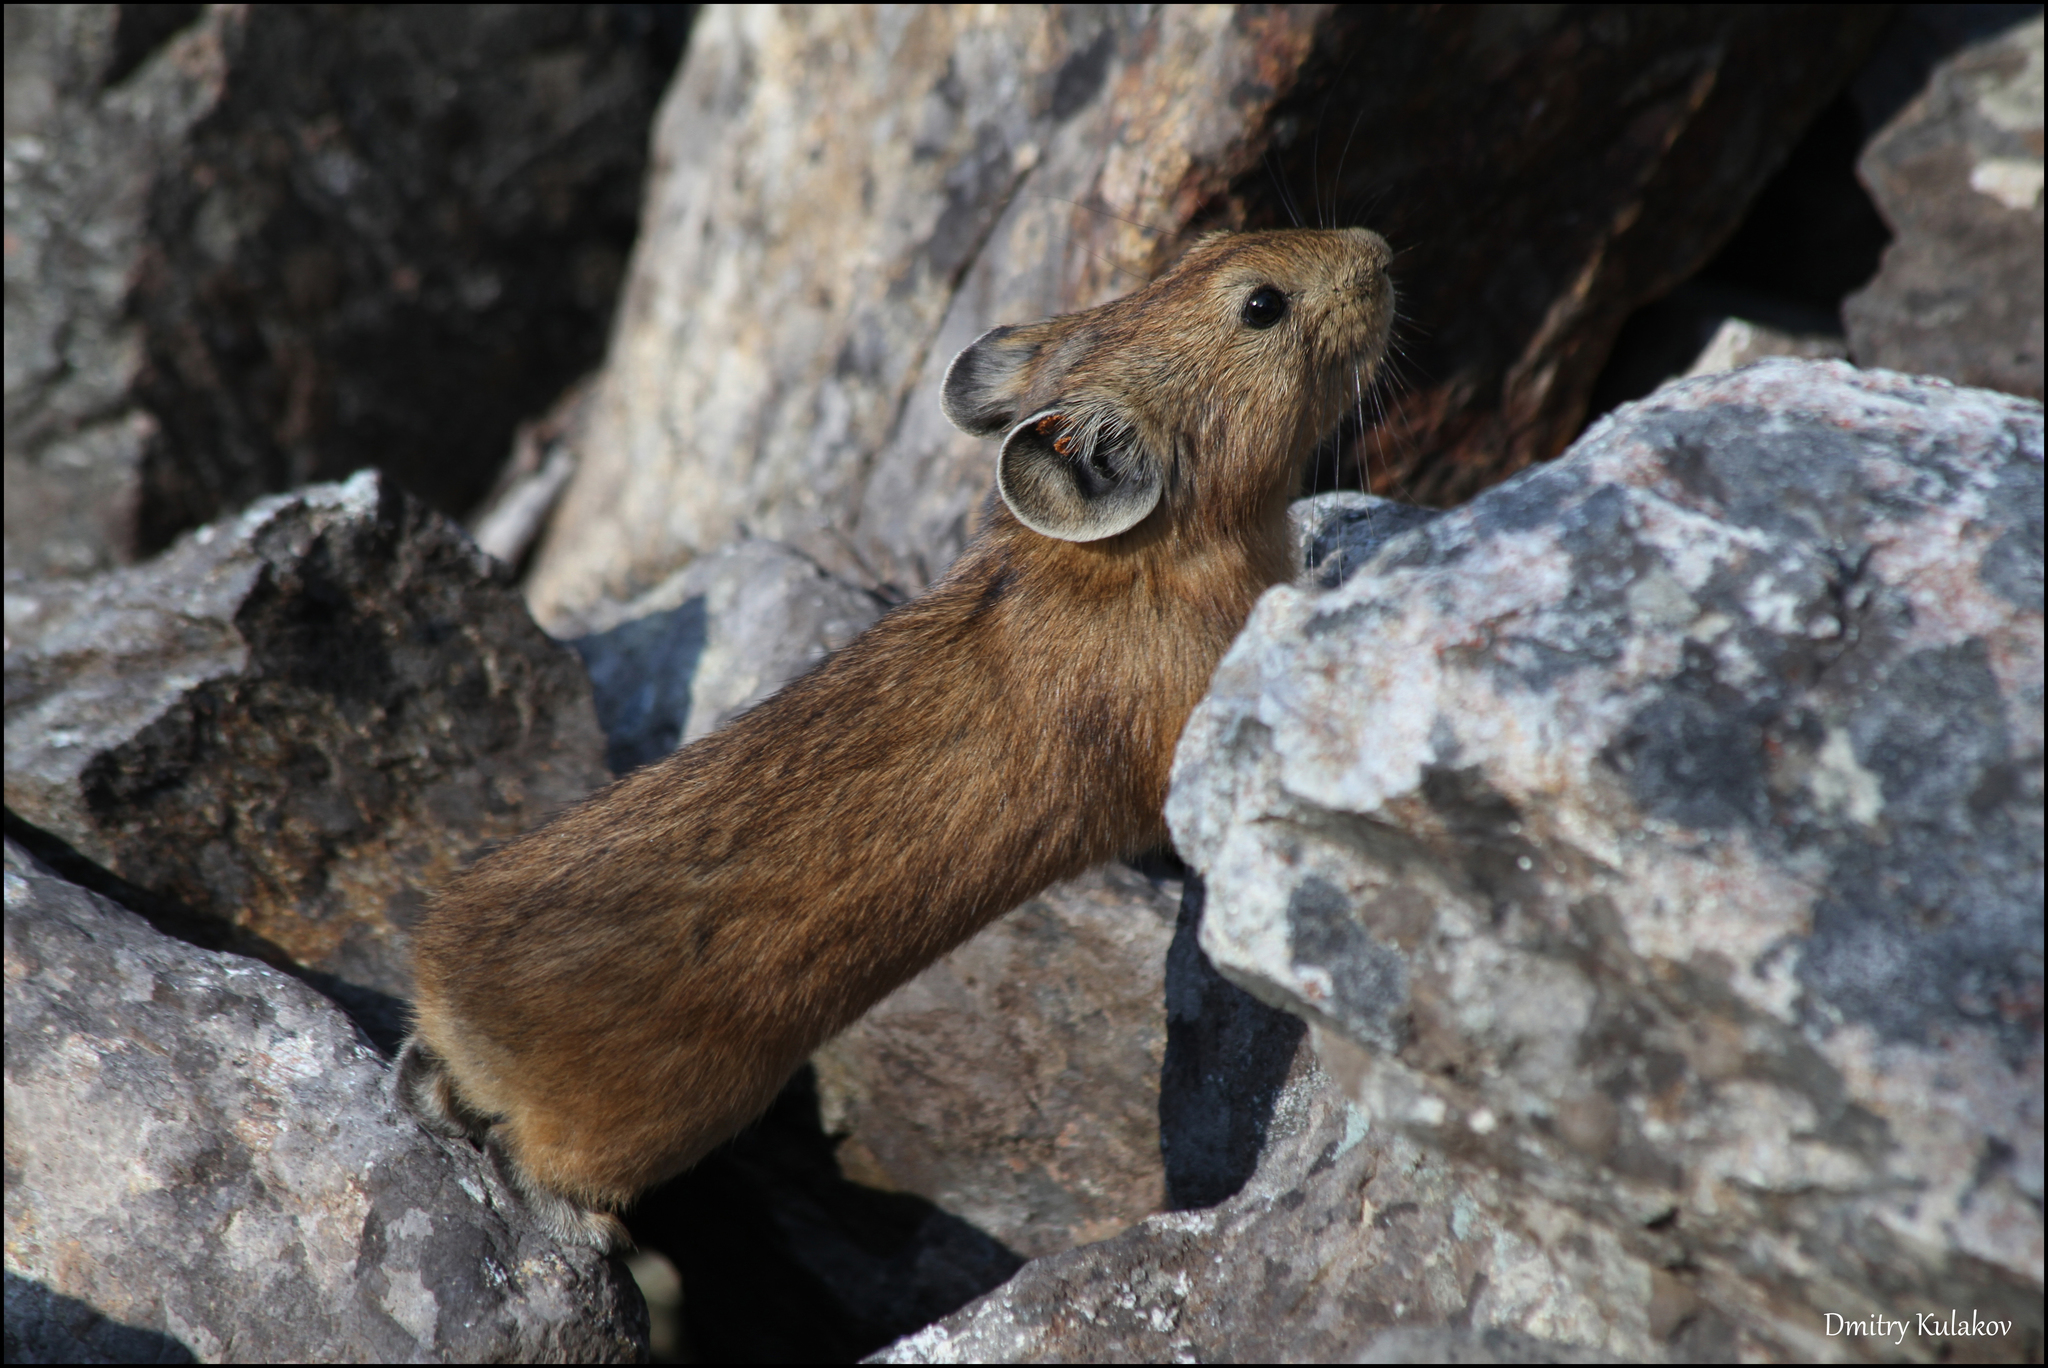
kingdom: Animalia
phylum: Chordata
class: Mammalia
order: Lagomorpha
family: Ochotonidae
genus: Ochotona
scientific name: Ochotona alpina
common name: Alpine pika
